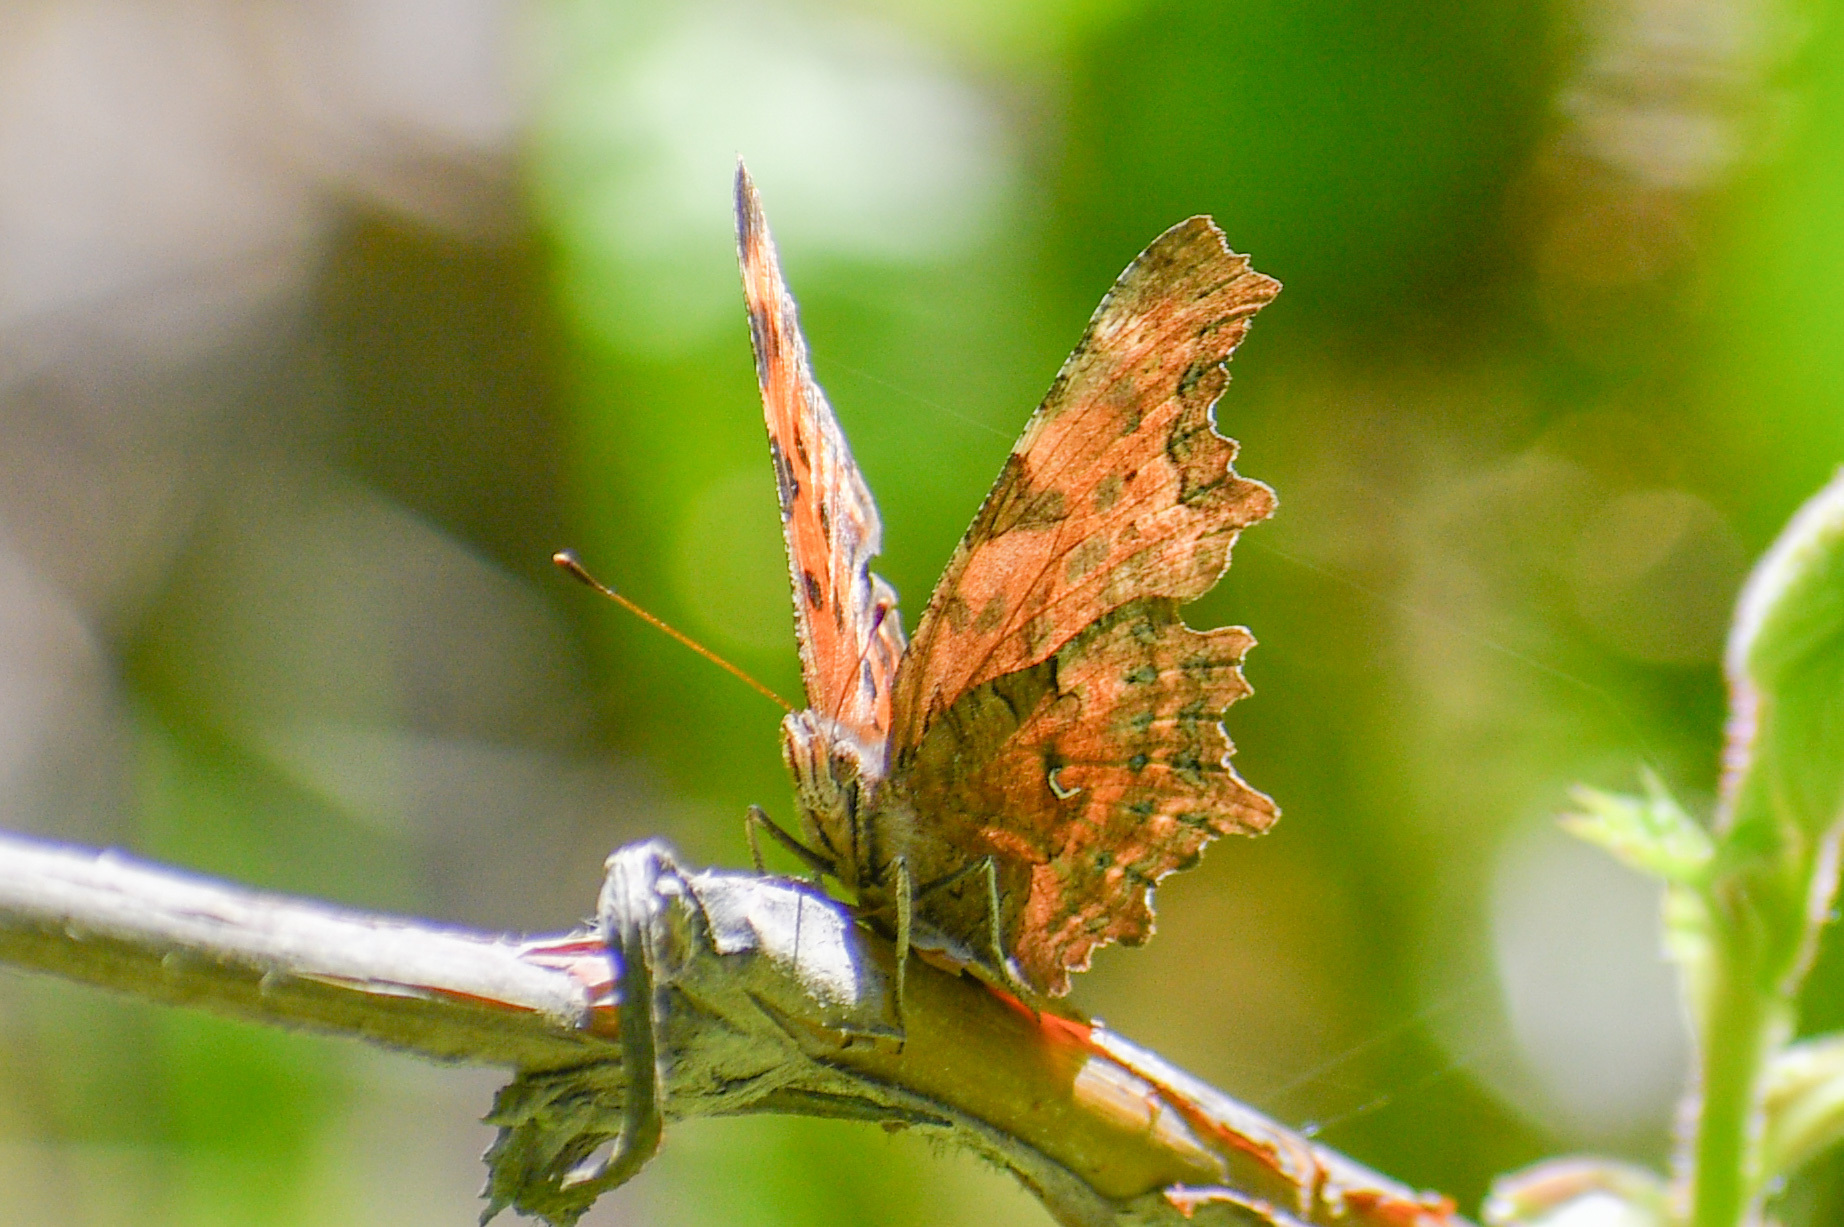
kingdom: Animalia
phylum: Arthropoda
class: Insecta
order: Lepidoptera
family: Nymphalidae
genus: Polygonia
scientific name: Polygonia faunus
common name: Green comma
